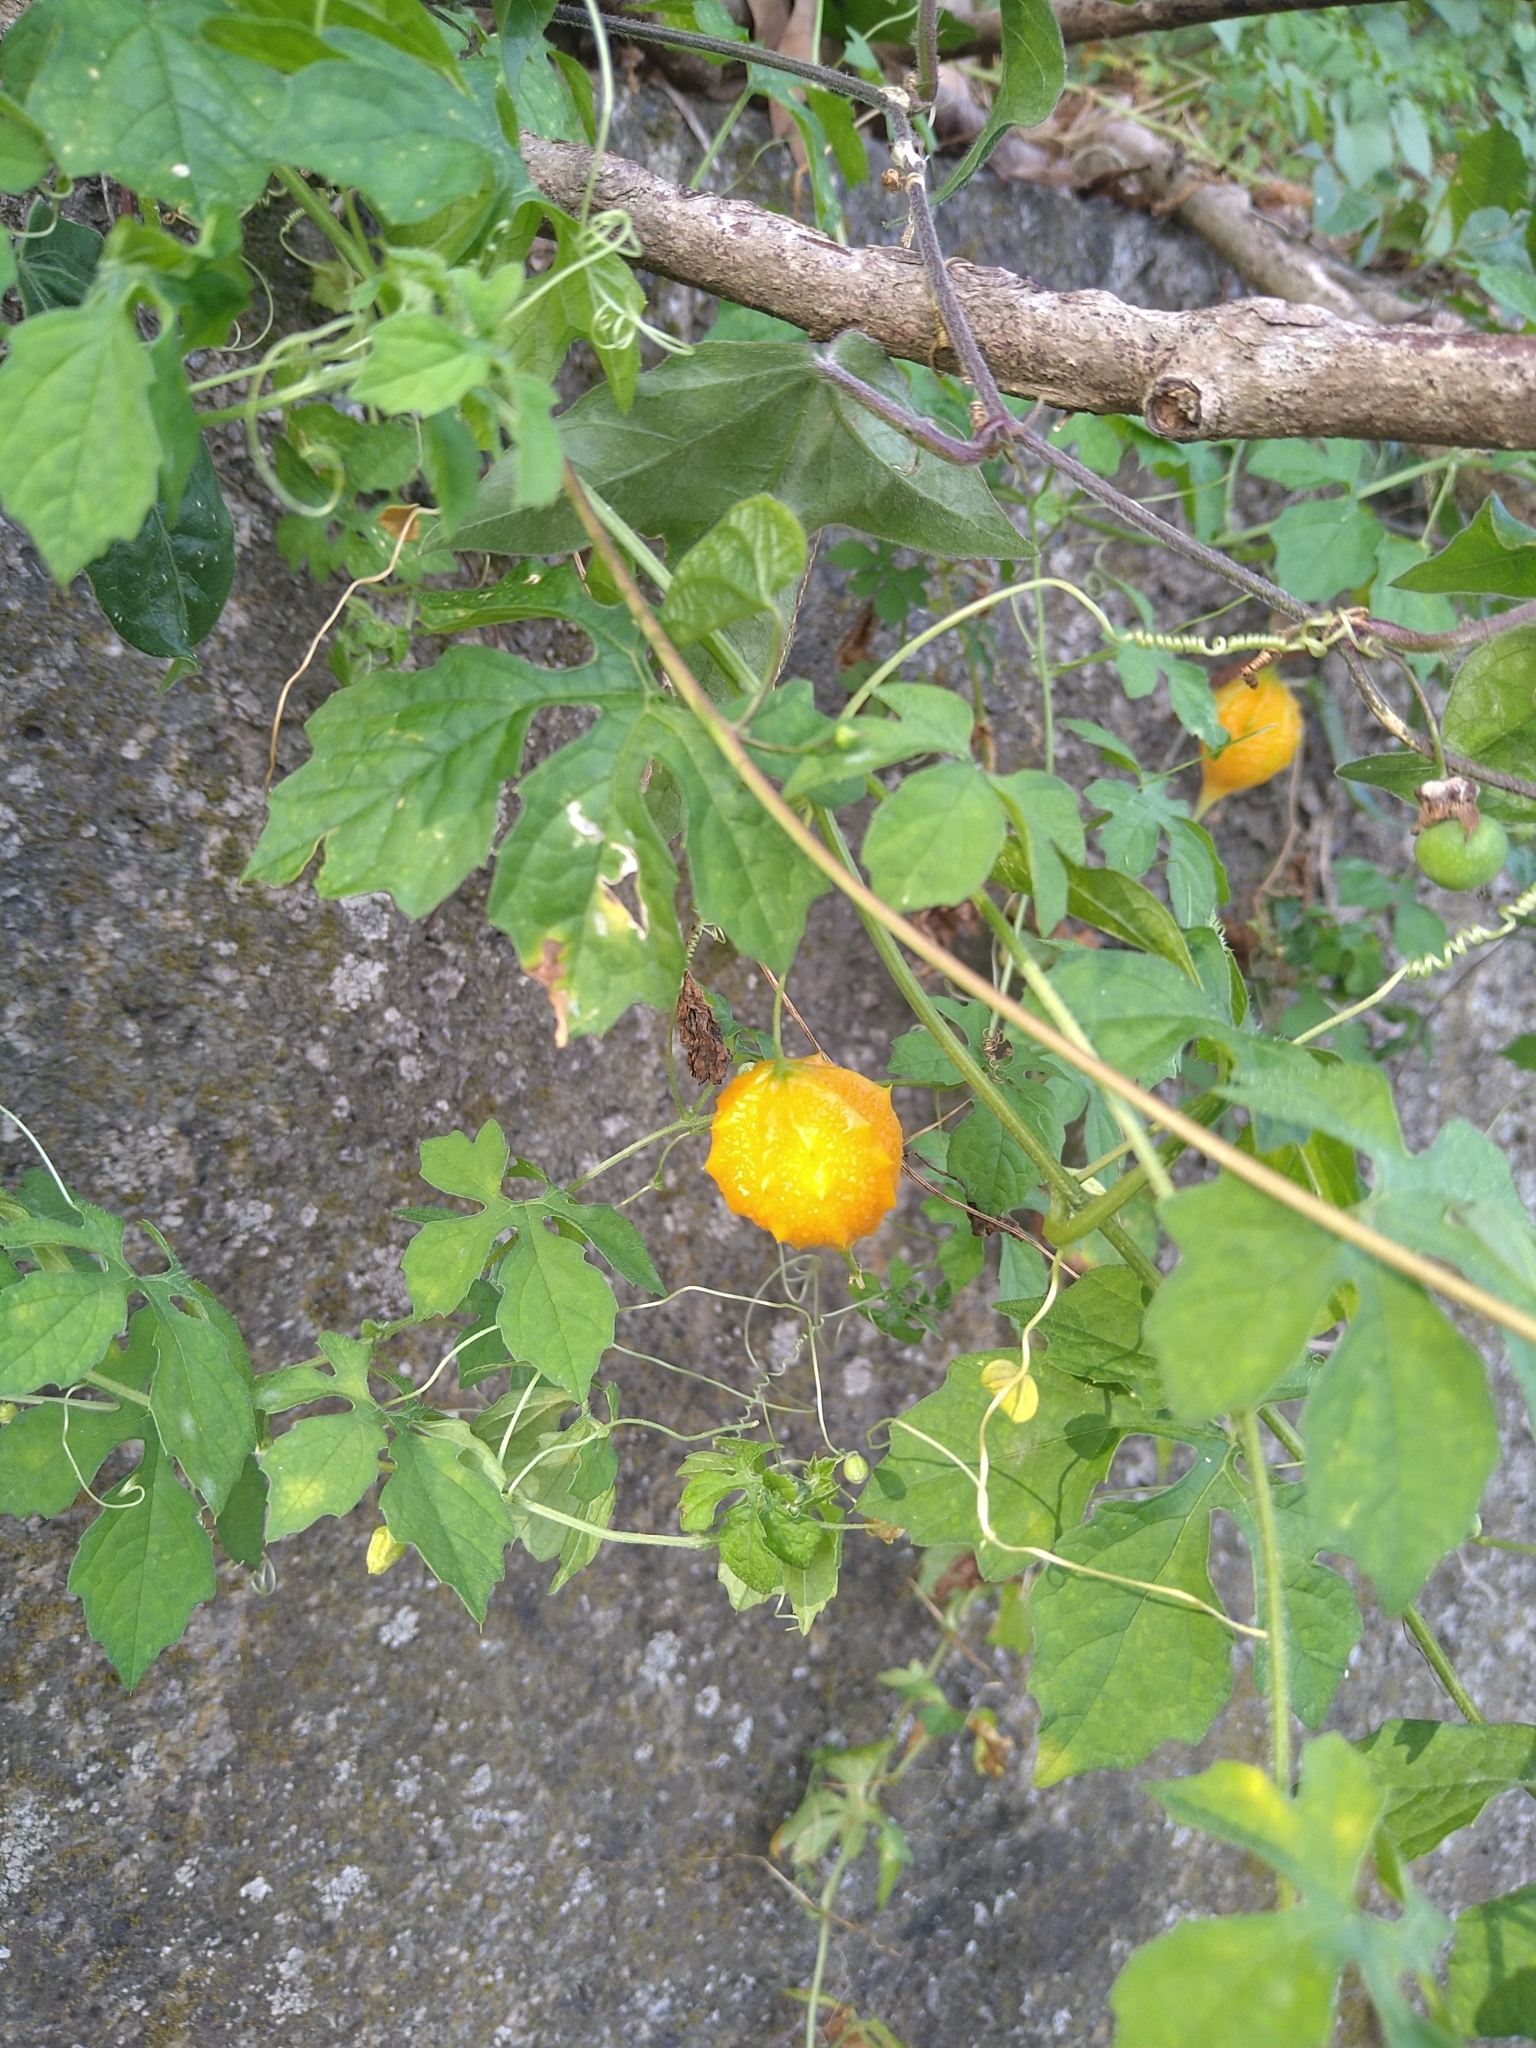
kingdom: Plantae
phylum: Tracheophyta
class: Magnoliopsida
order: Cucurbitales
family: Cucurbitaceae
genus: Momordica
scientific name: Momordica charantia
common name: Balsampear
